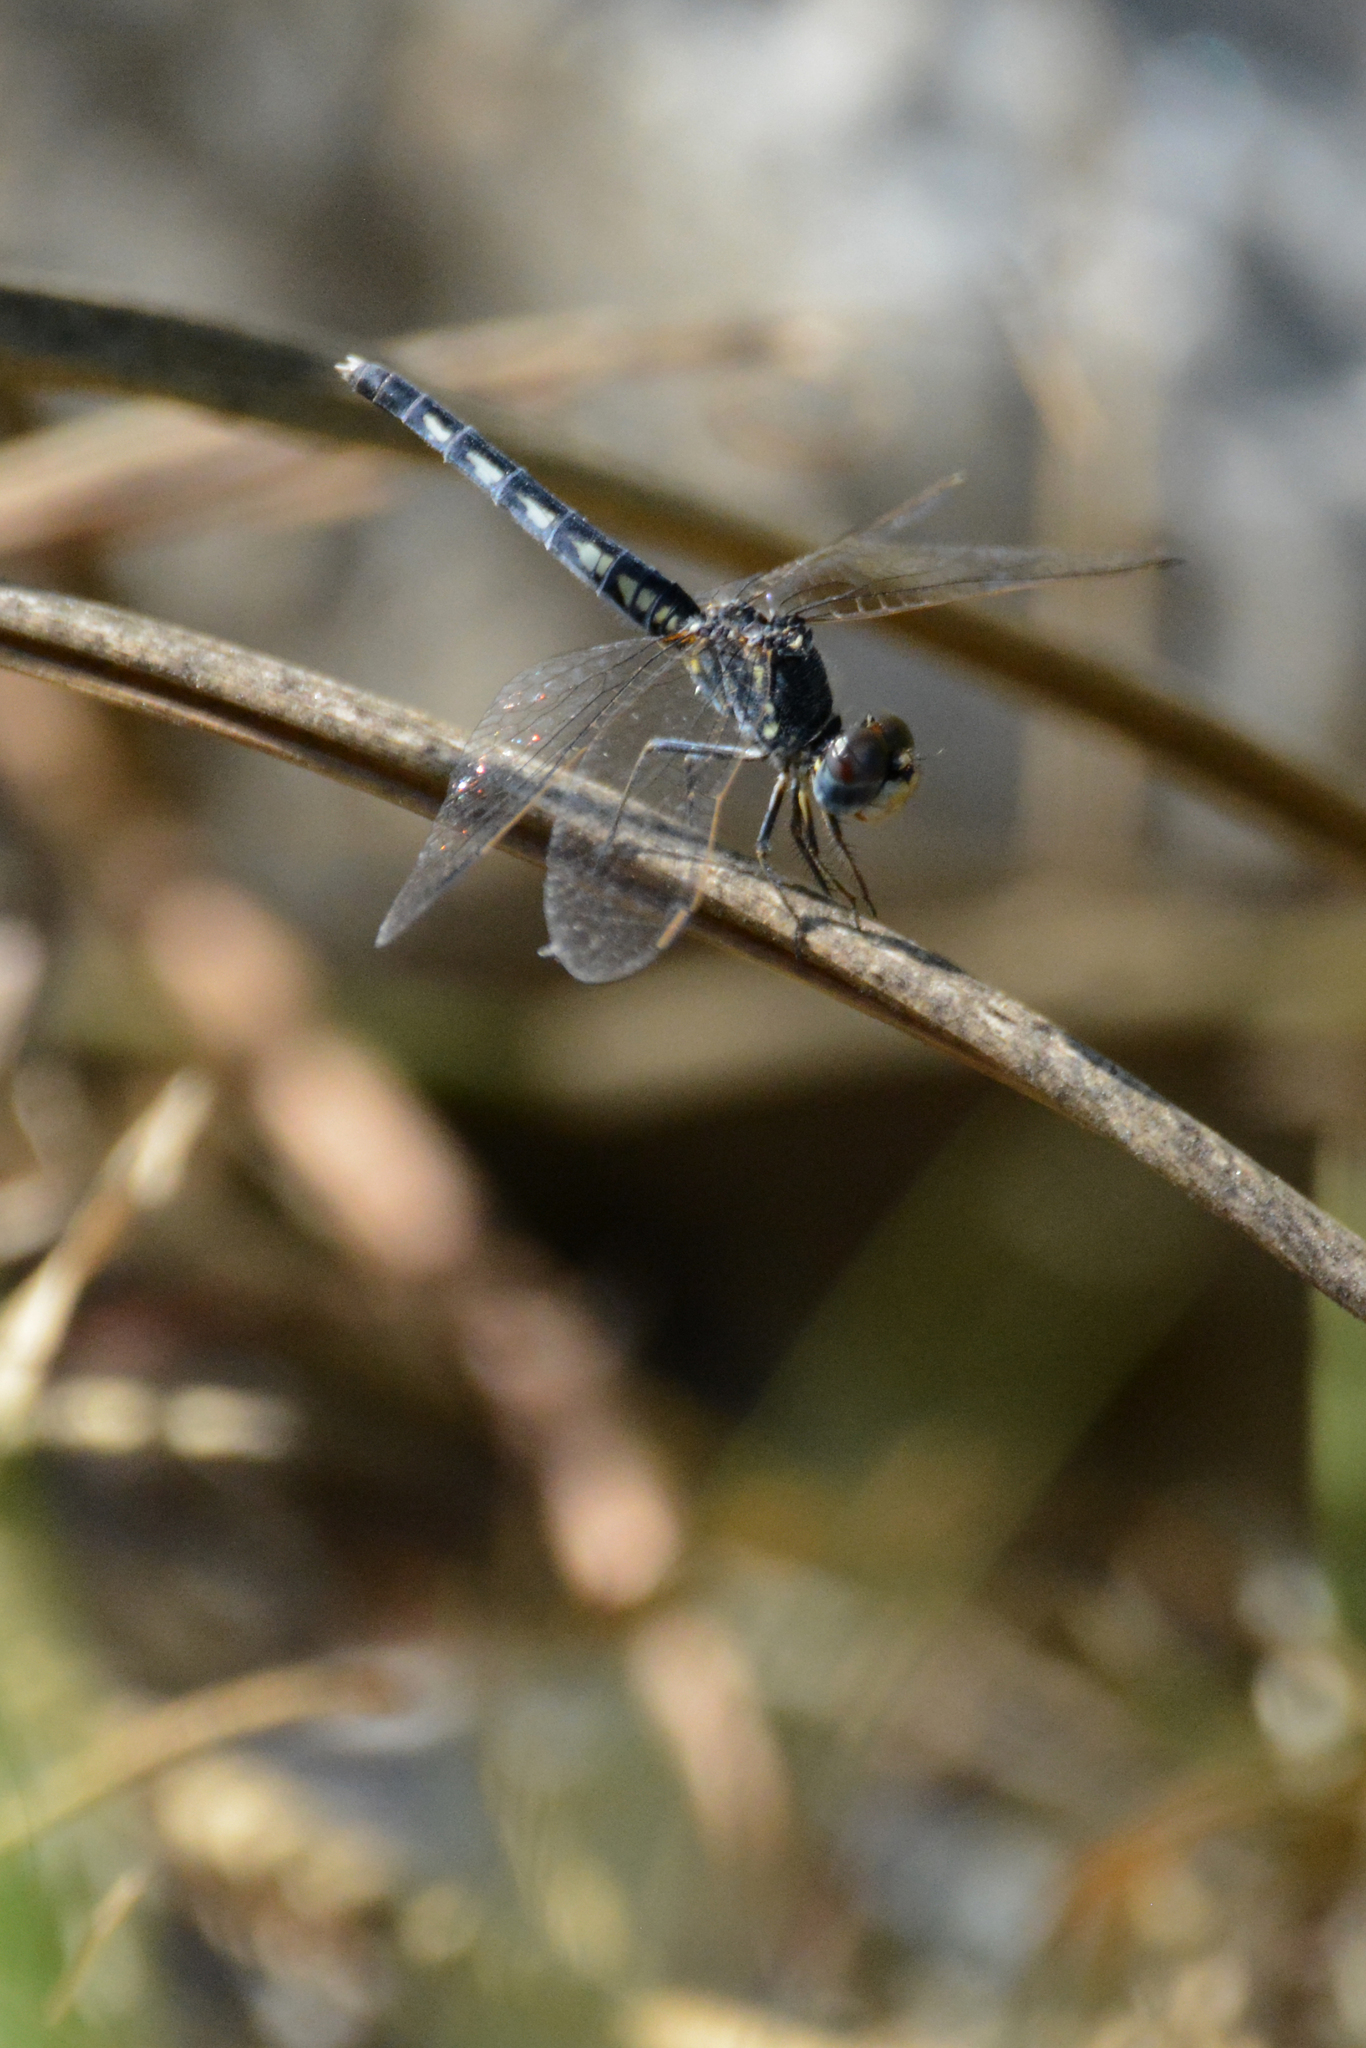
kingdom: Animalia
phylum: Arthropoda
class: Insecta
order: Odonata
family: Libellulidae
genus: Diplacodes
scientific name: Diplacodes lefebvrii
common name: Black percher
